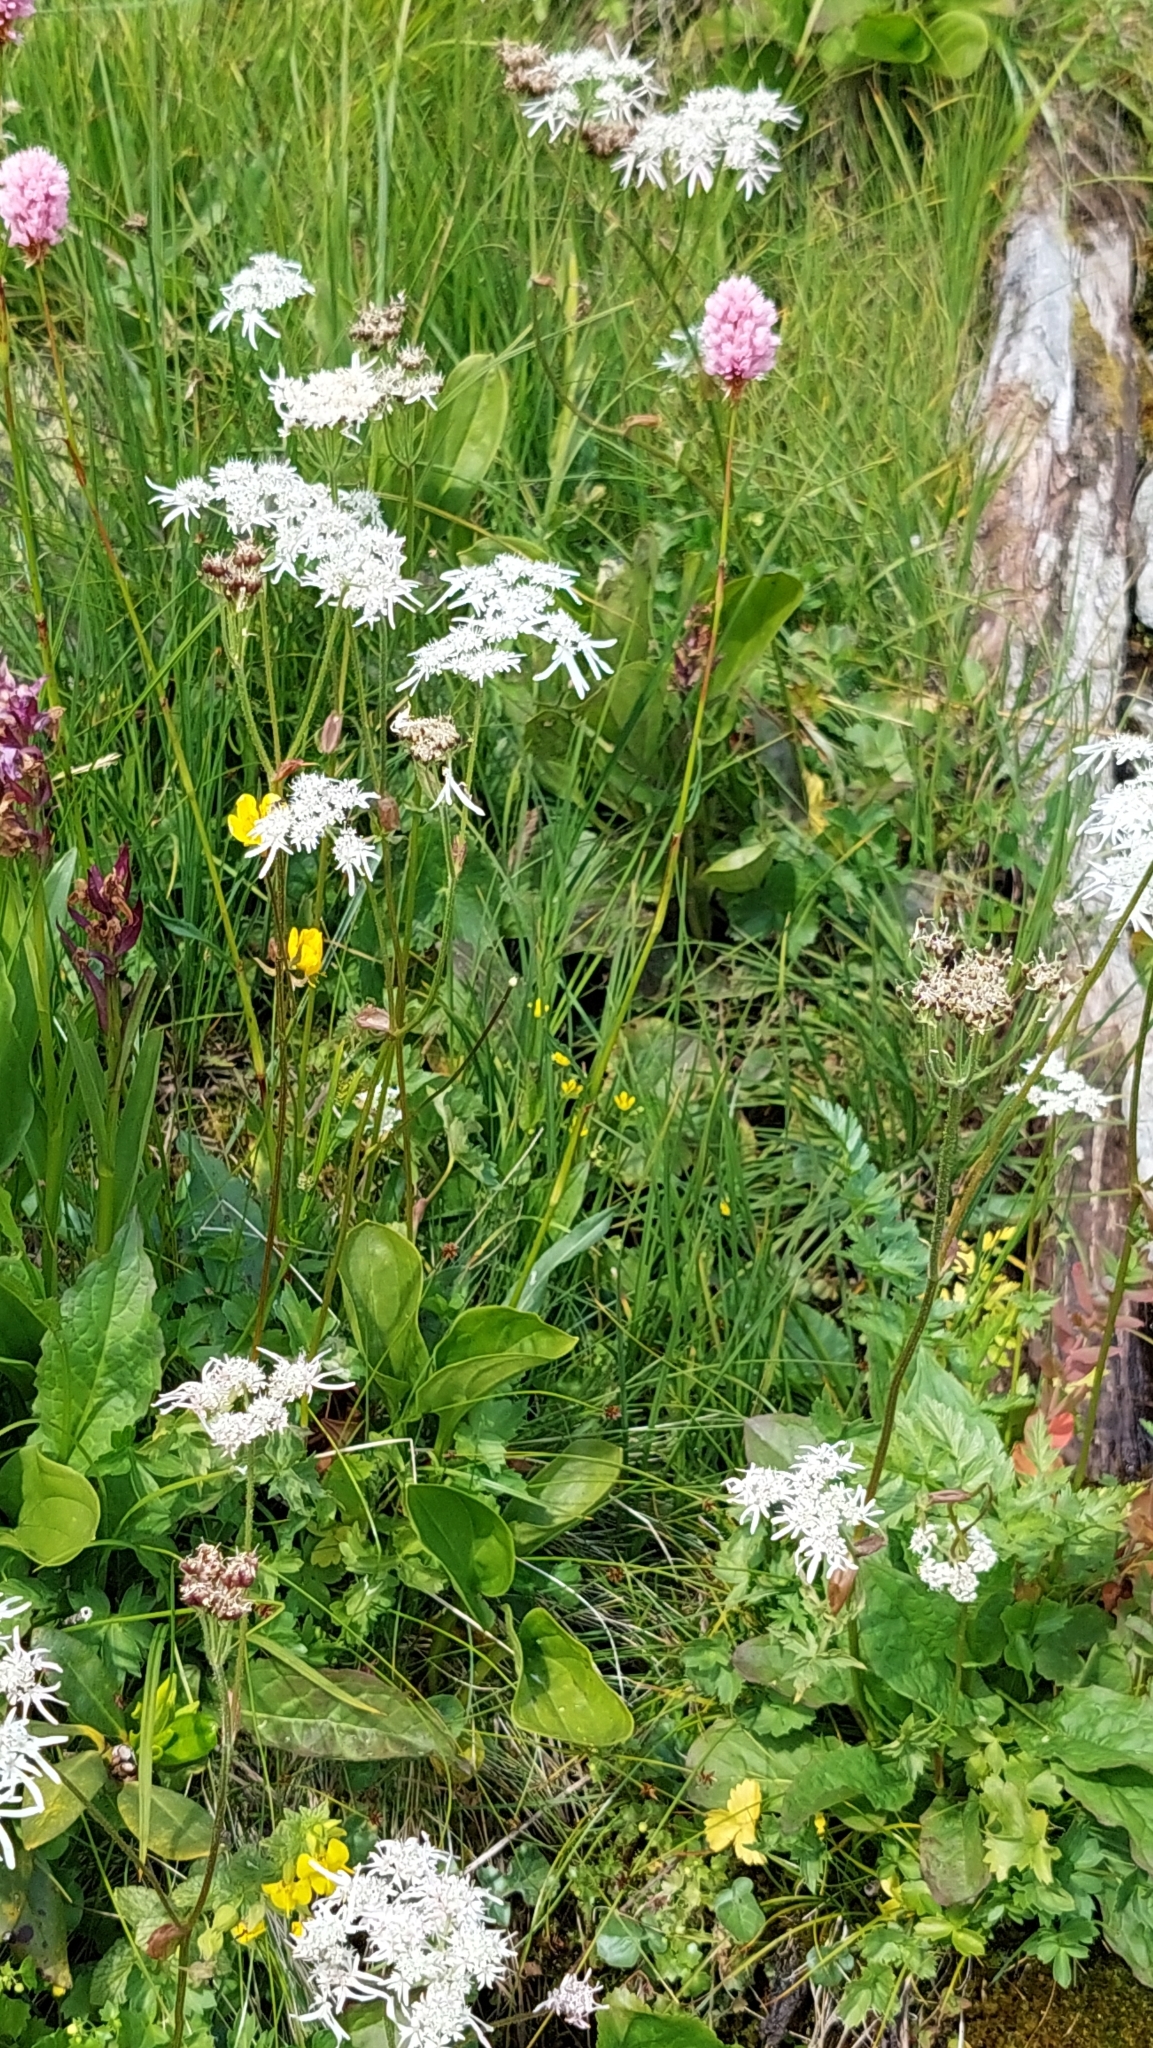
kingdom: Plantae
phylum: Tracheophyta
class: Magnoliopsida
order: Apiales
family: Apiaceae
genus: Heracleum
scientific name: Heracleum apiifolium
